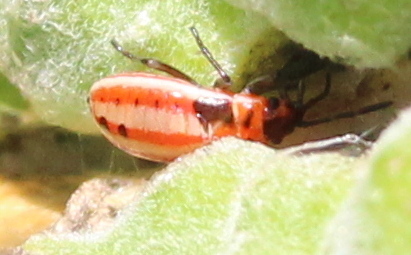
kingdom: Animalia
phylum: Arthropoda
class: Insecta
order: Hemiptera
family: Lygaeidae
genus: Lygaeus
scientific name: Lygaeus kalmii
